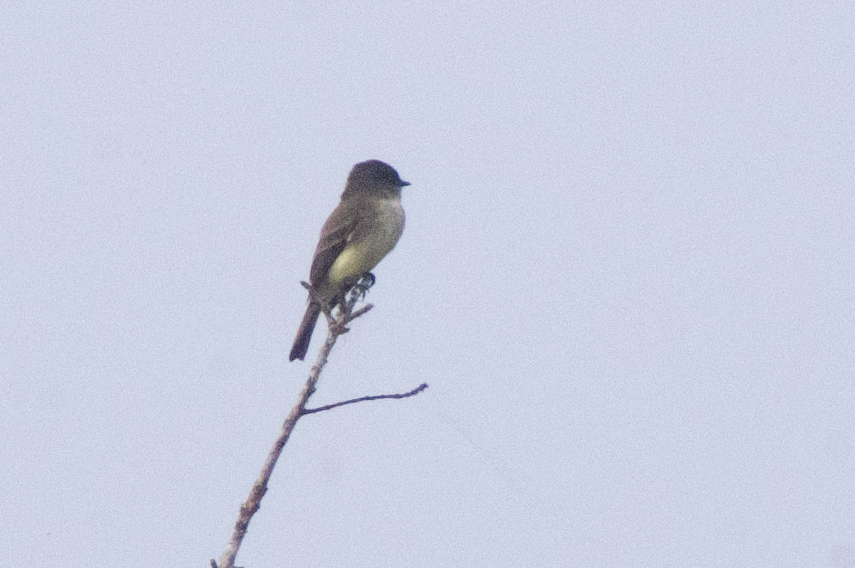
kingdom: Animalia
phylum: Chordata
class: Aves
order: Passeriformes
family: Tyrannidae
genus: Sayornis
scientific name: Sayornis phoebe
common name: Eastern phoebe
